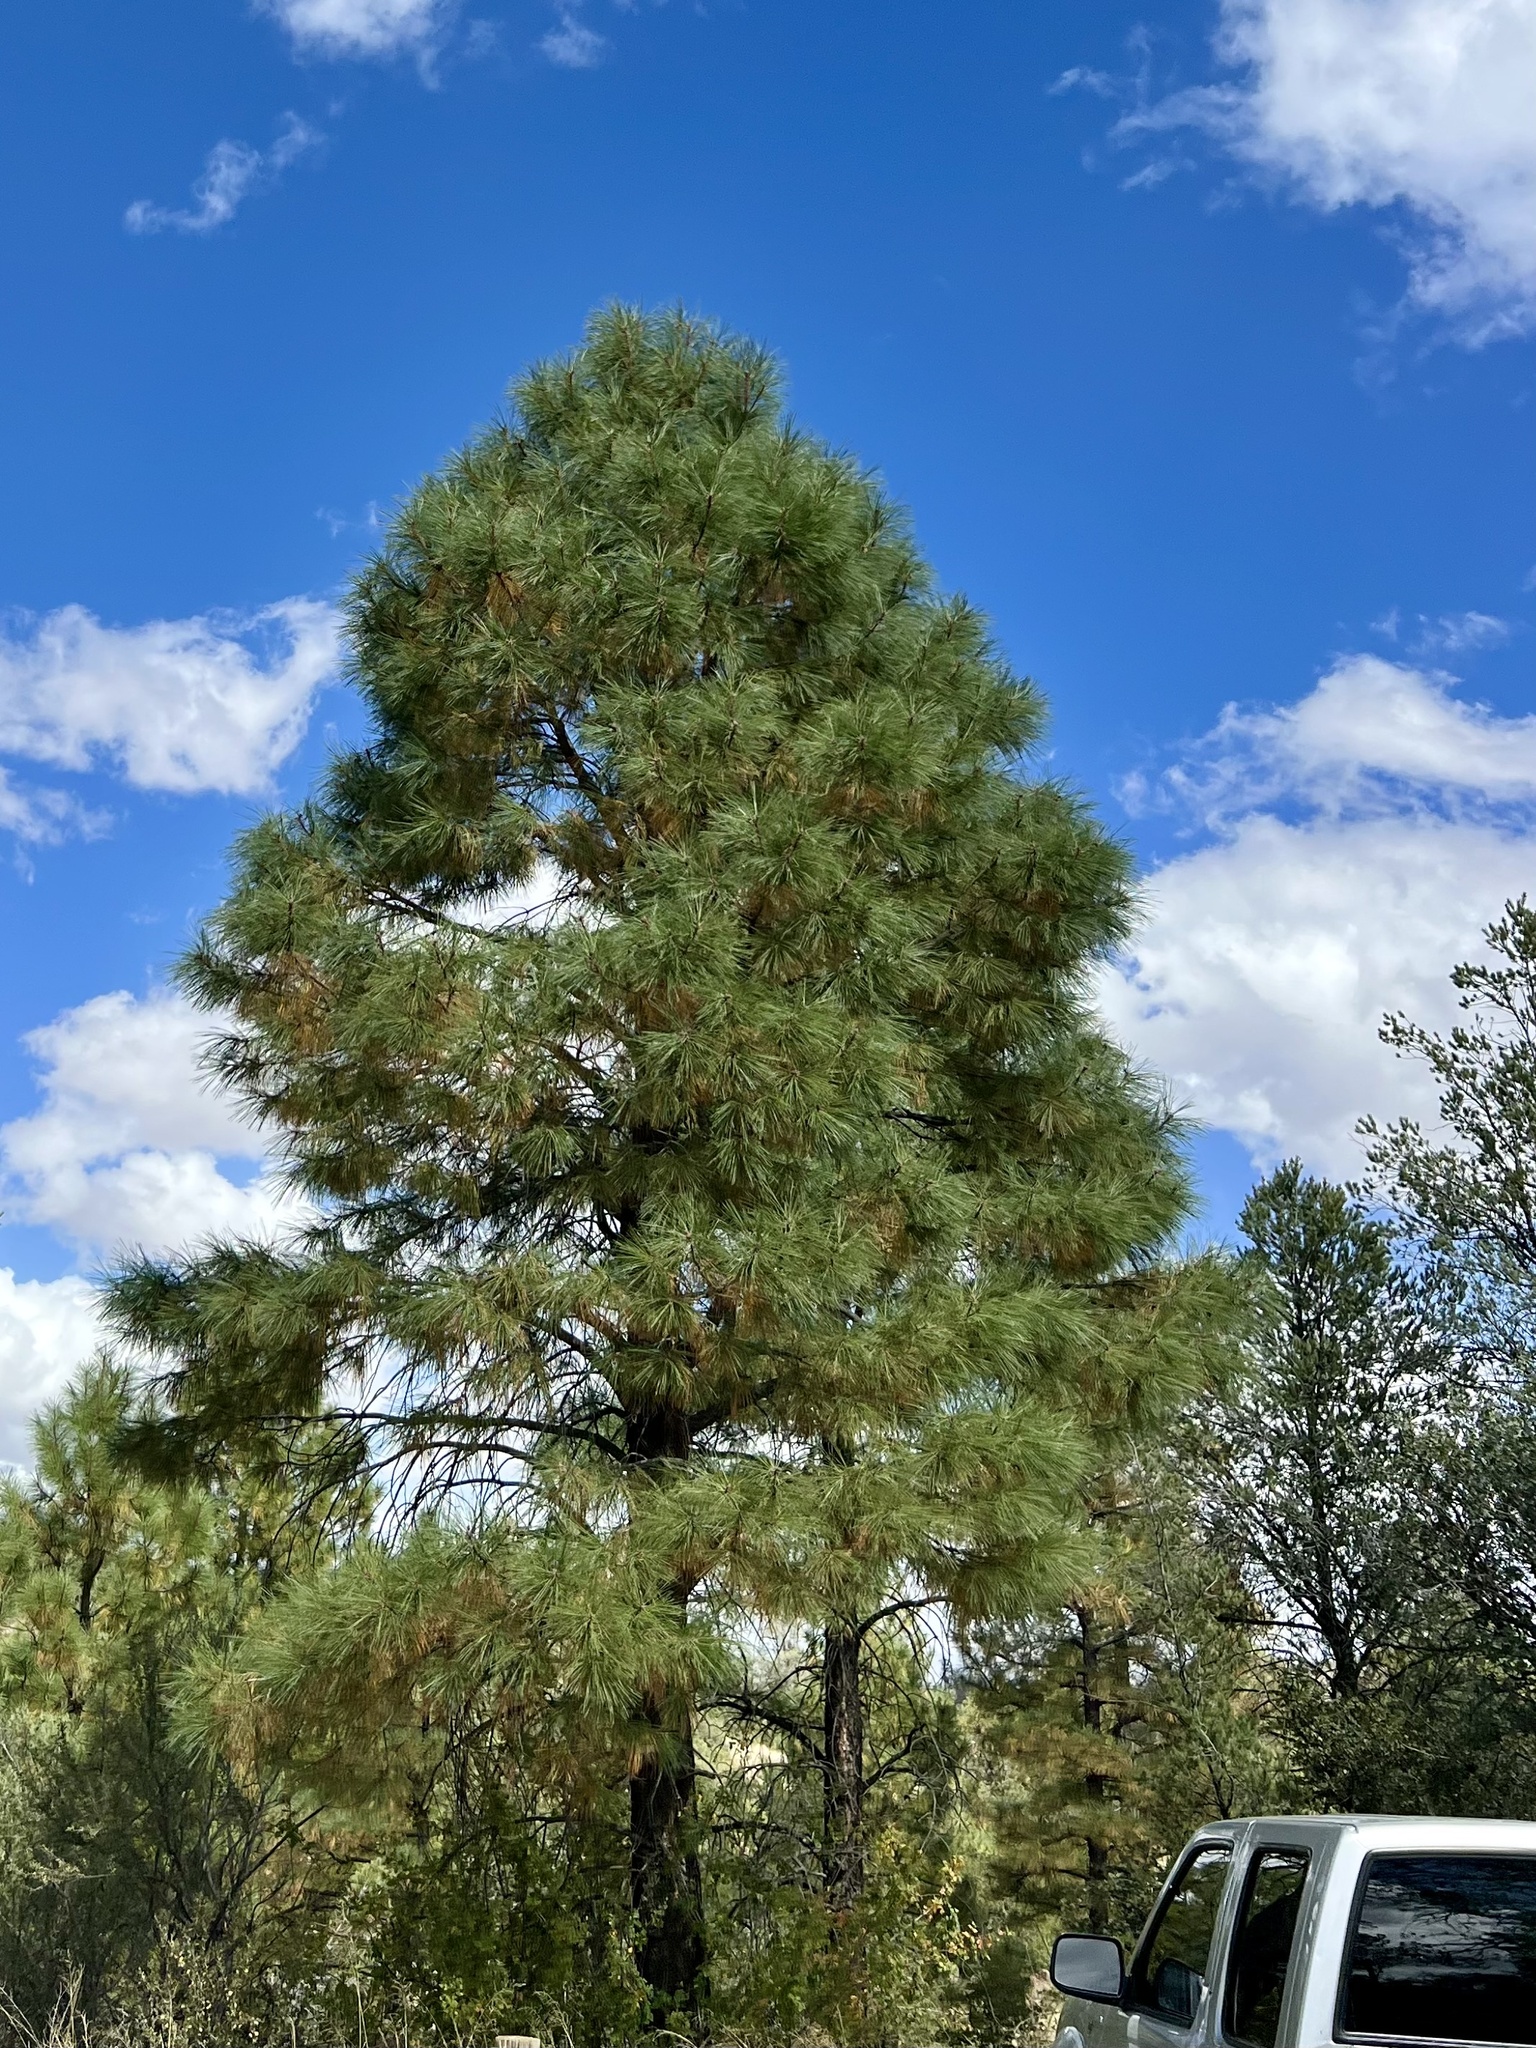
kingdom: Plantae
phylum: Tracheophyta
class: Pinopsida
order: Pinales
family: Pinaceae
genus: Pinus
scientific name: Pinus ponderosa
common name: Western yellow-pine
